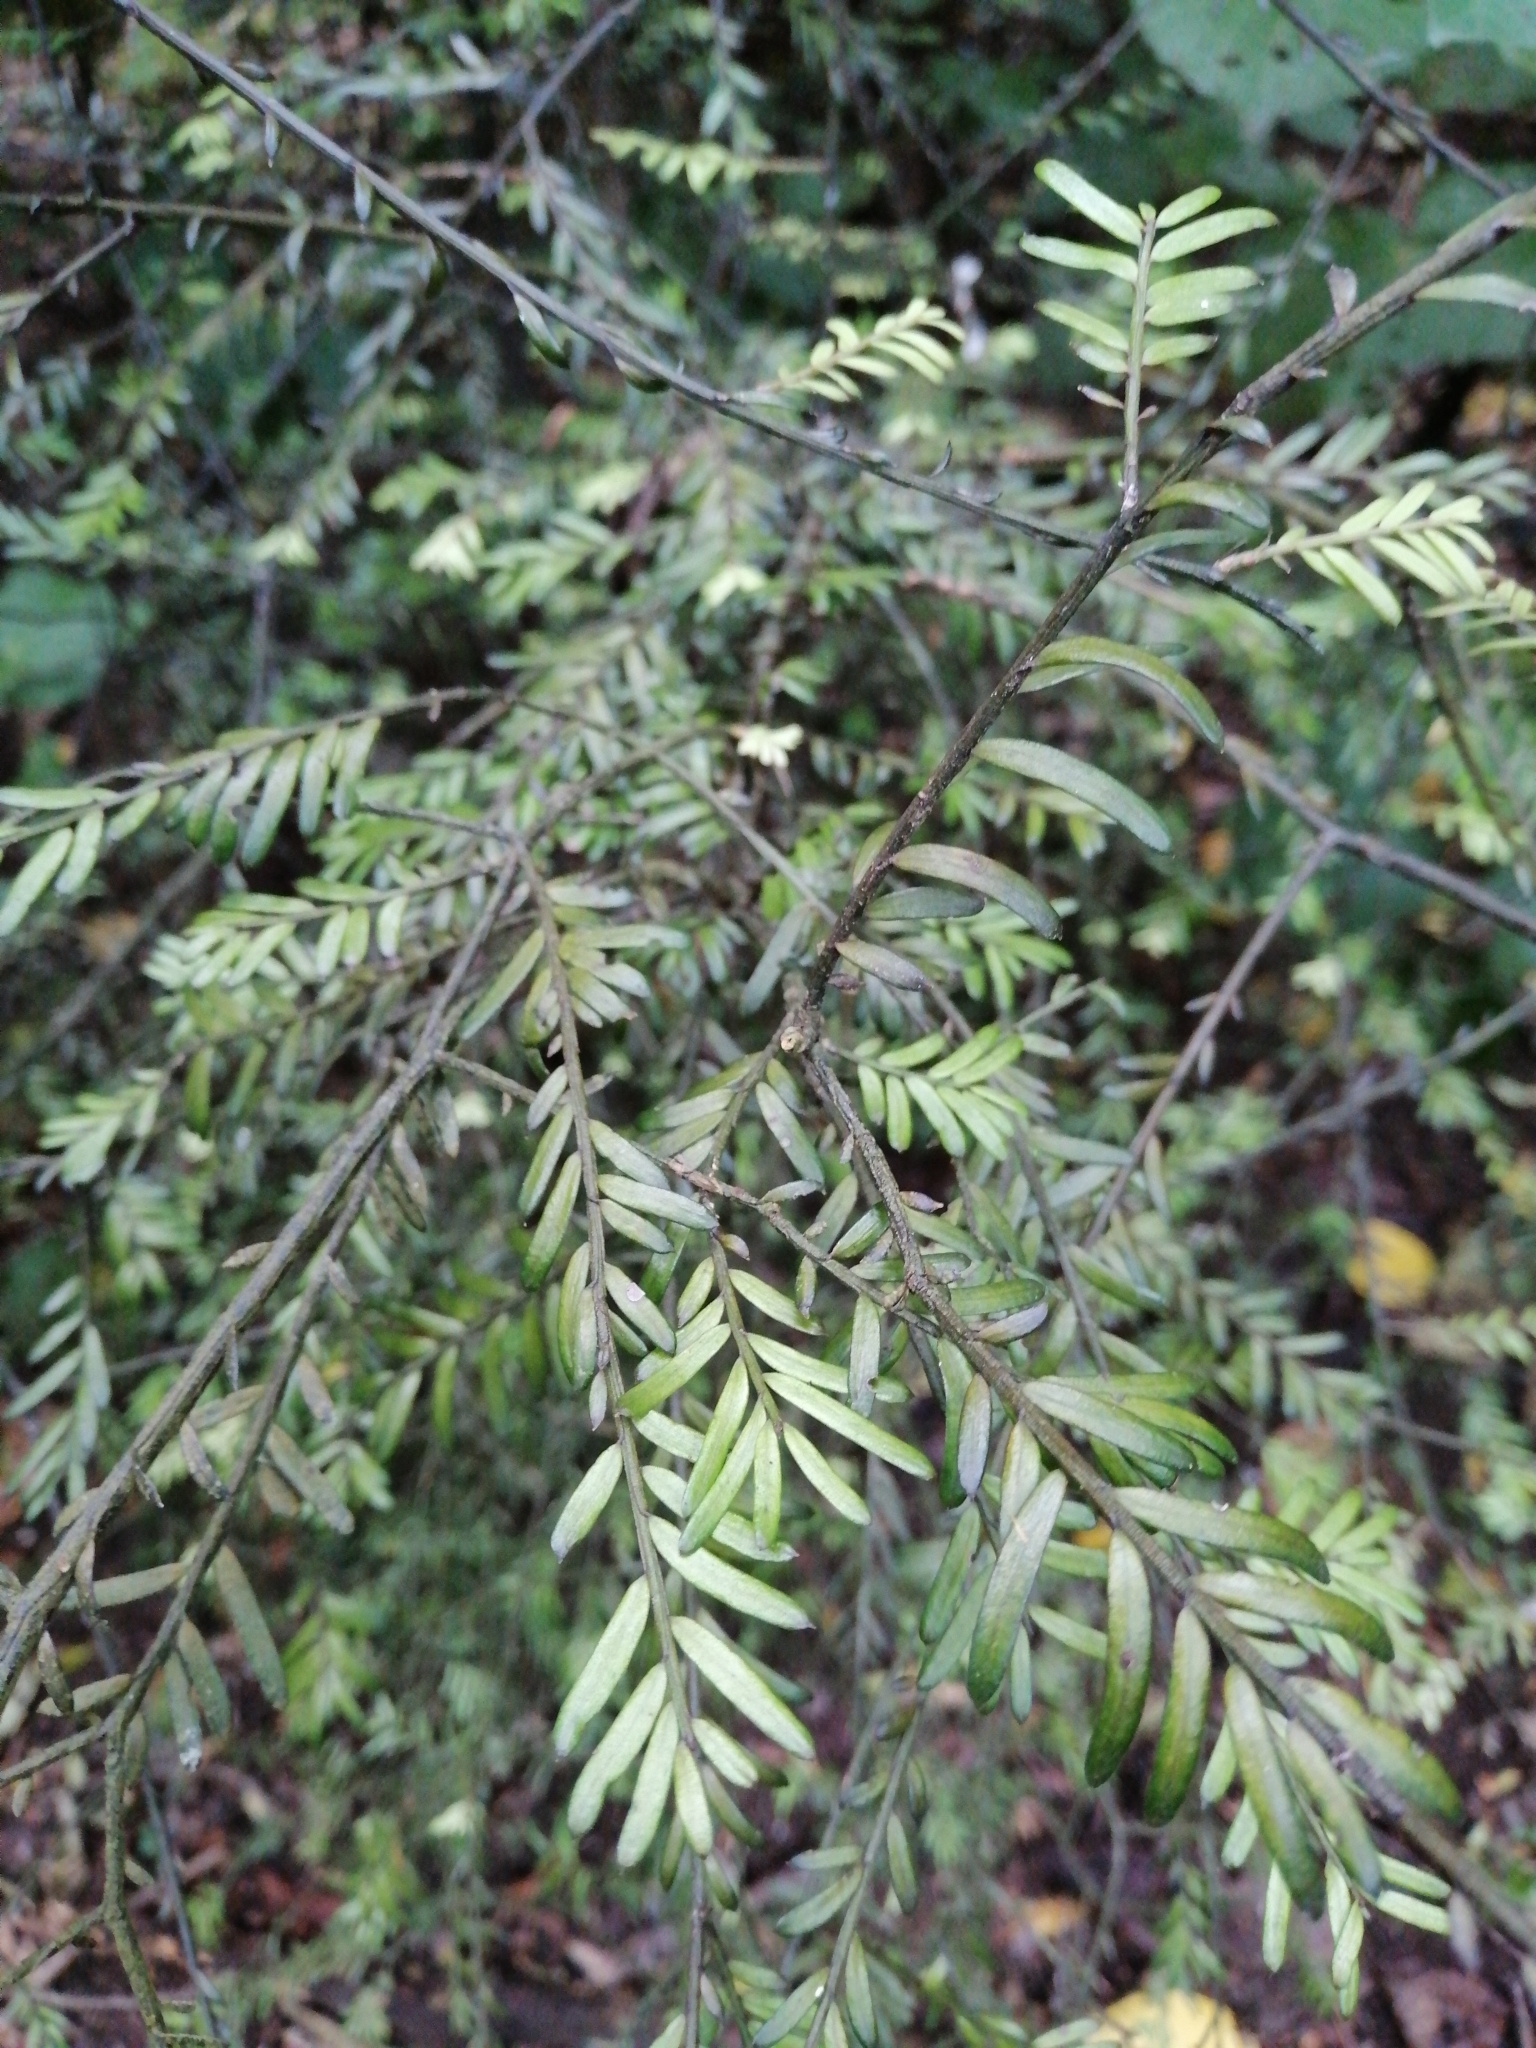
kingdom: Plantae
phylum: Tracheophyta
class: Pinopsida
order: Pinales
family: Podocarpaceae
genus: Prumnopitys
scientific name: Prumnopitys taxifolia
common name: Matai
